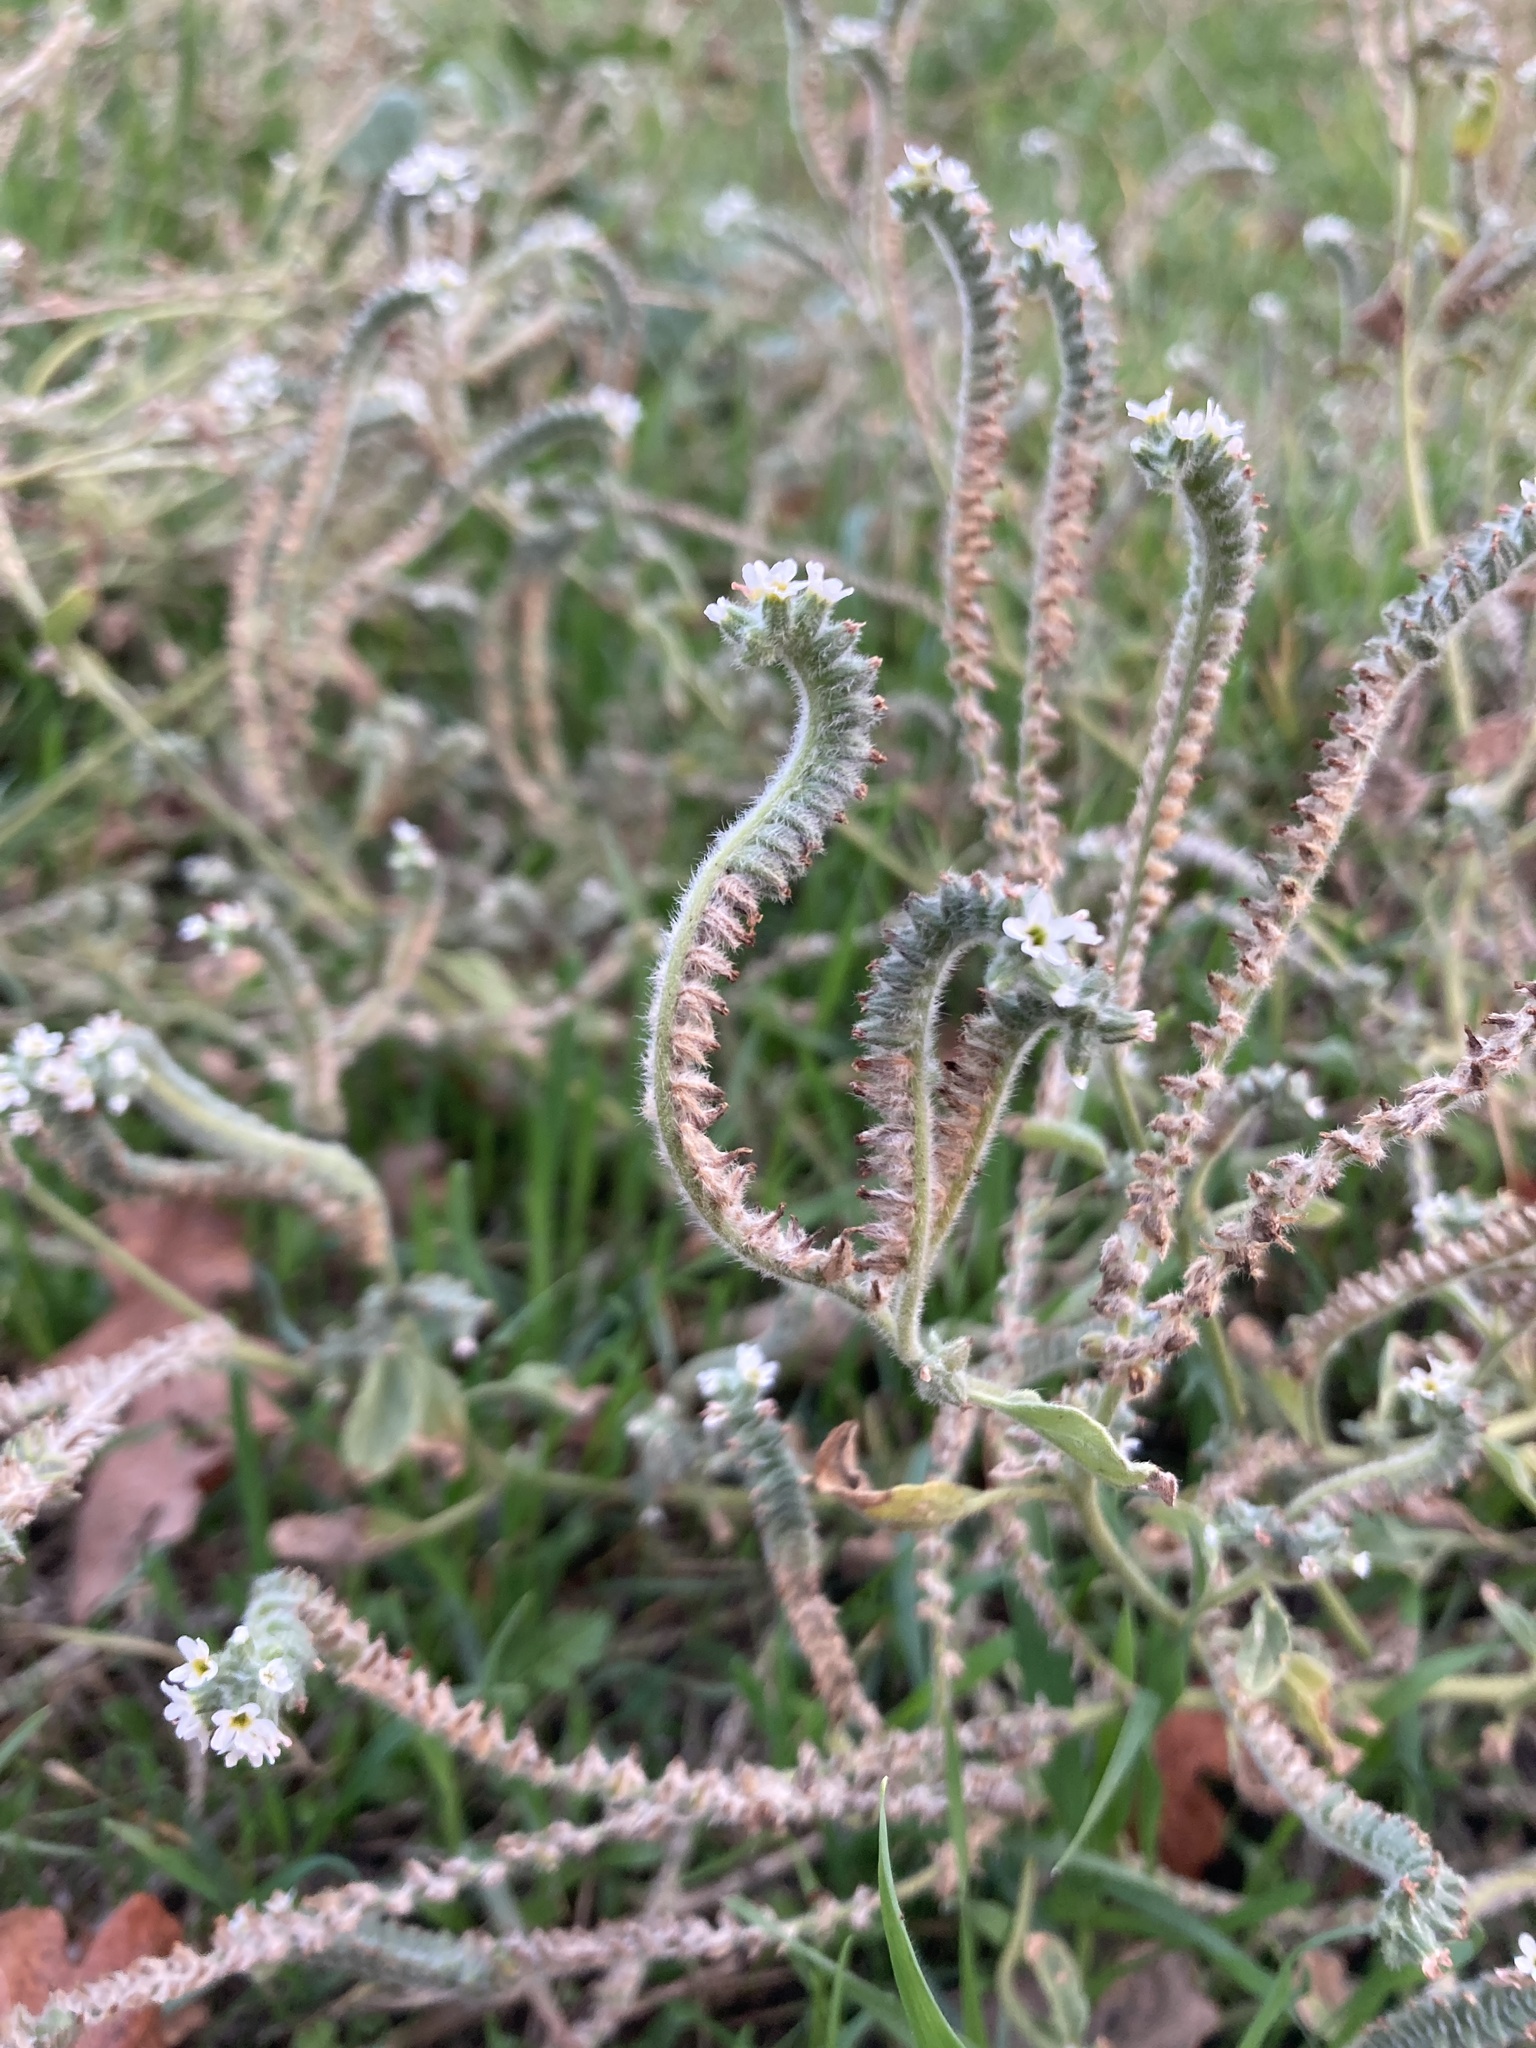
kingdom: Plantae
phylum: Tracheophyta
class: Magnoliopsida
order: Boraginales
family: Heliotropiaceae
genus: Heliotropium
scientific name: Heliotropium europaeum
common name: European heliotrope
